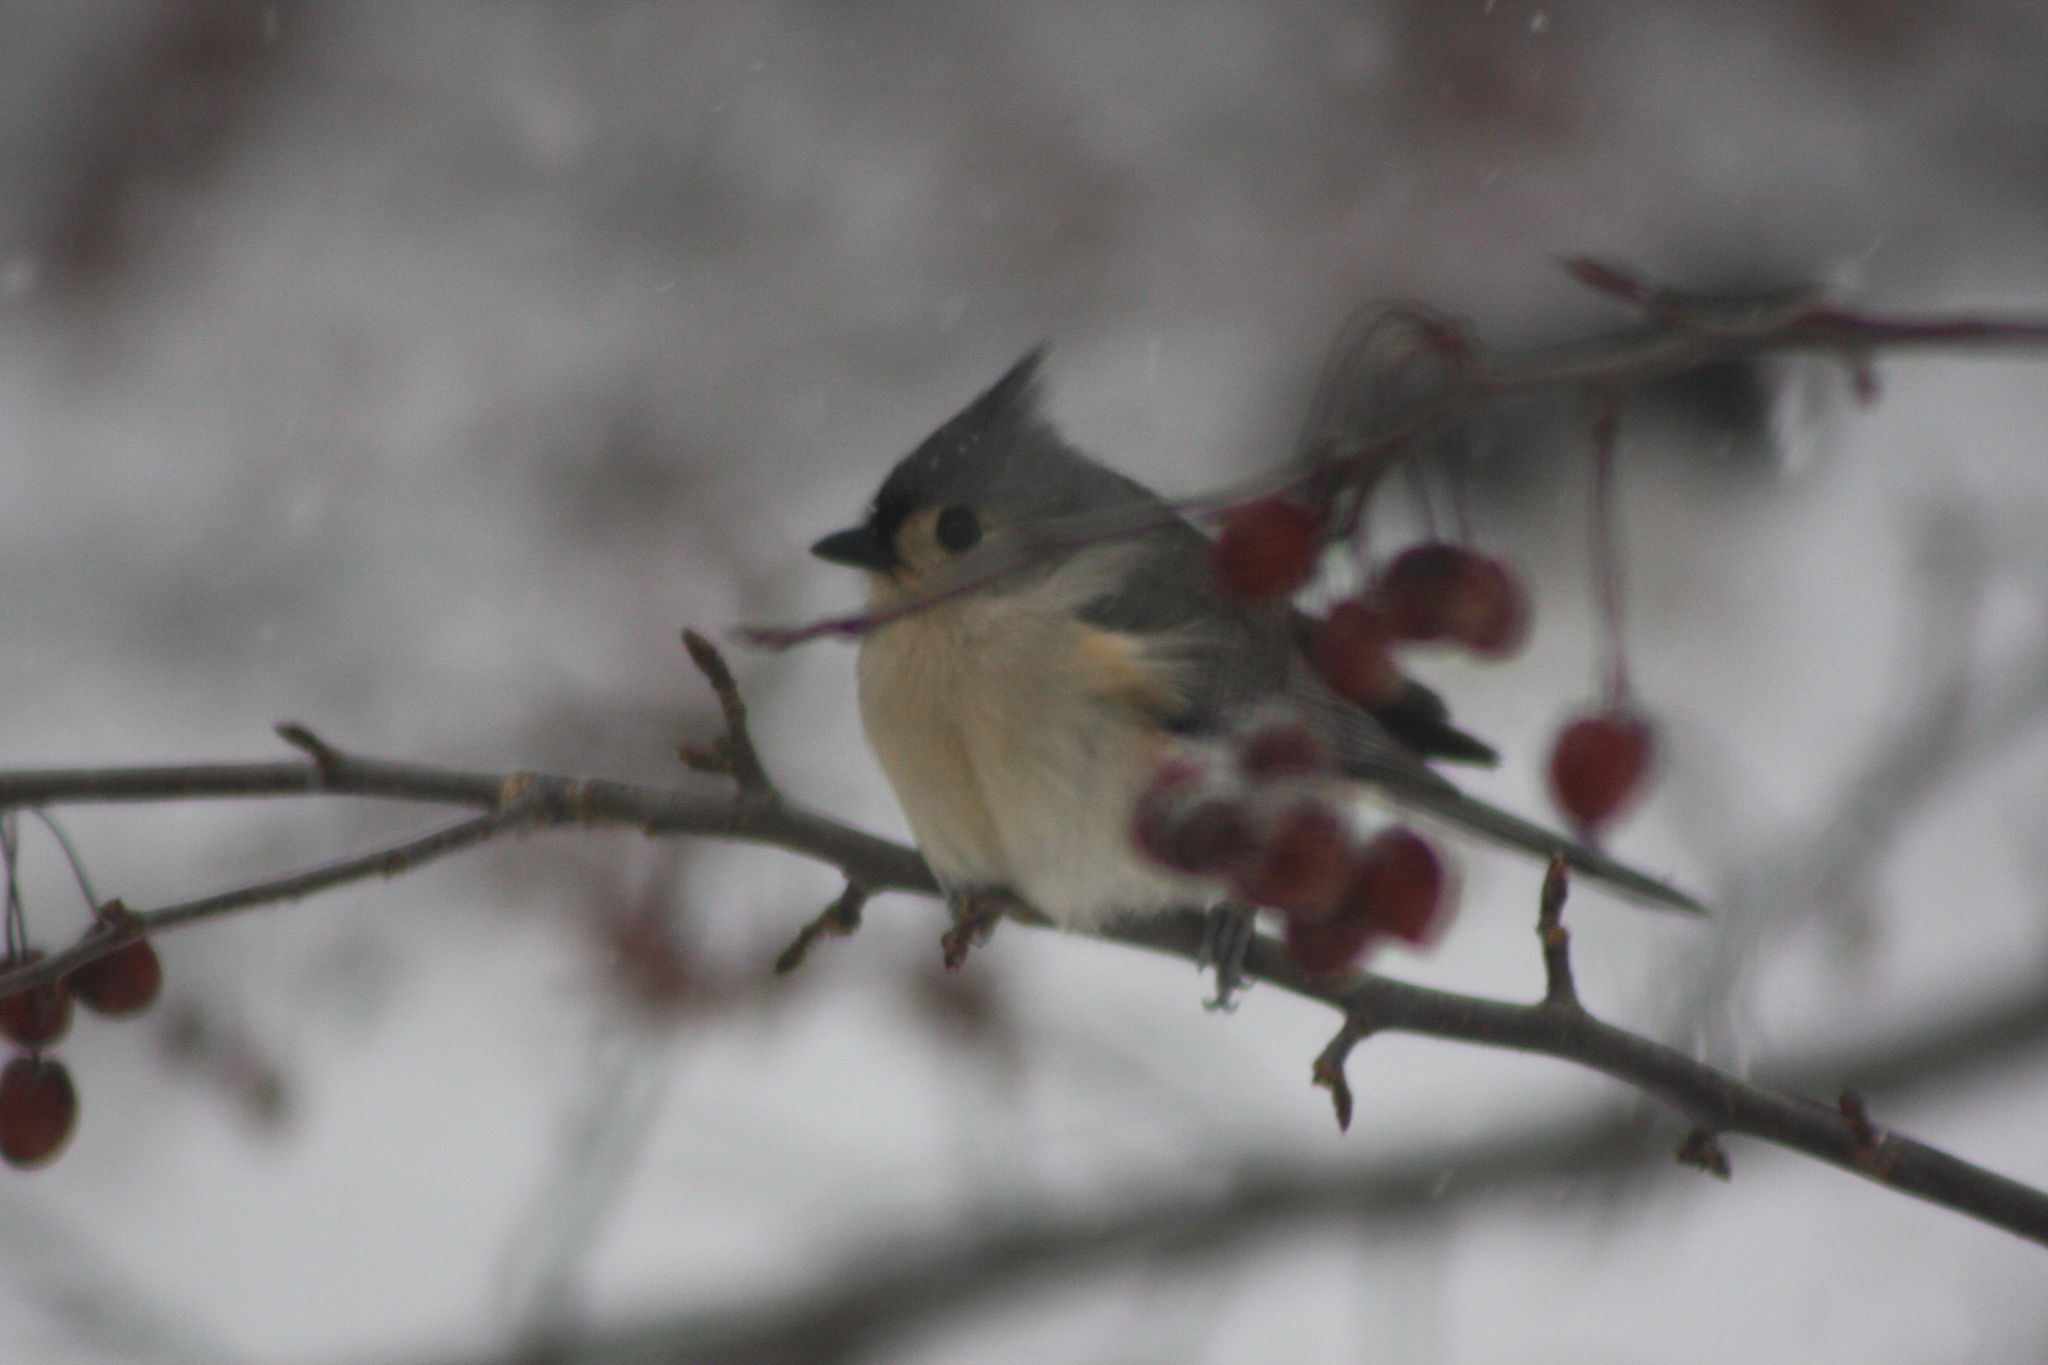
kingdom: Animalia
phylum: Chordata
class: Aves
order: Passeriformes
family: Paridae
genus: Baeolophus
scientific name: Baeolophus bicolor
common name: Tufted titmouse
